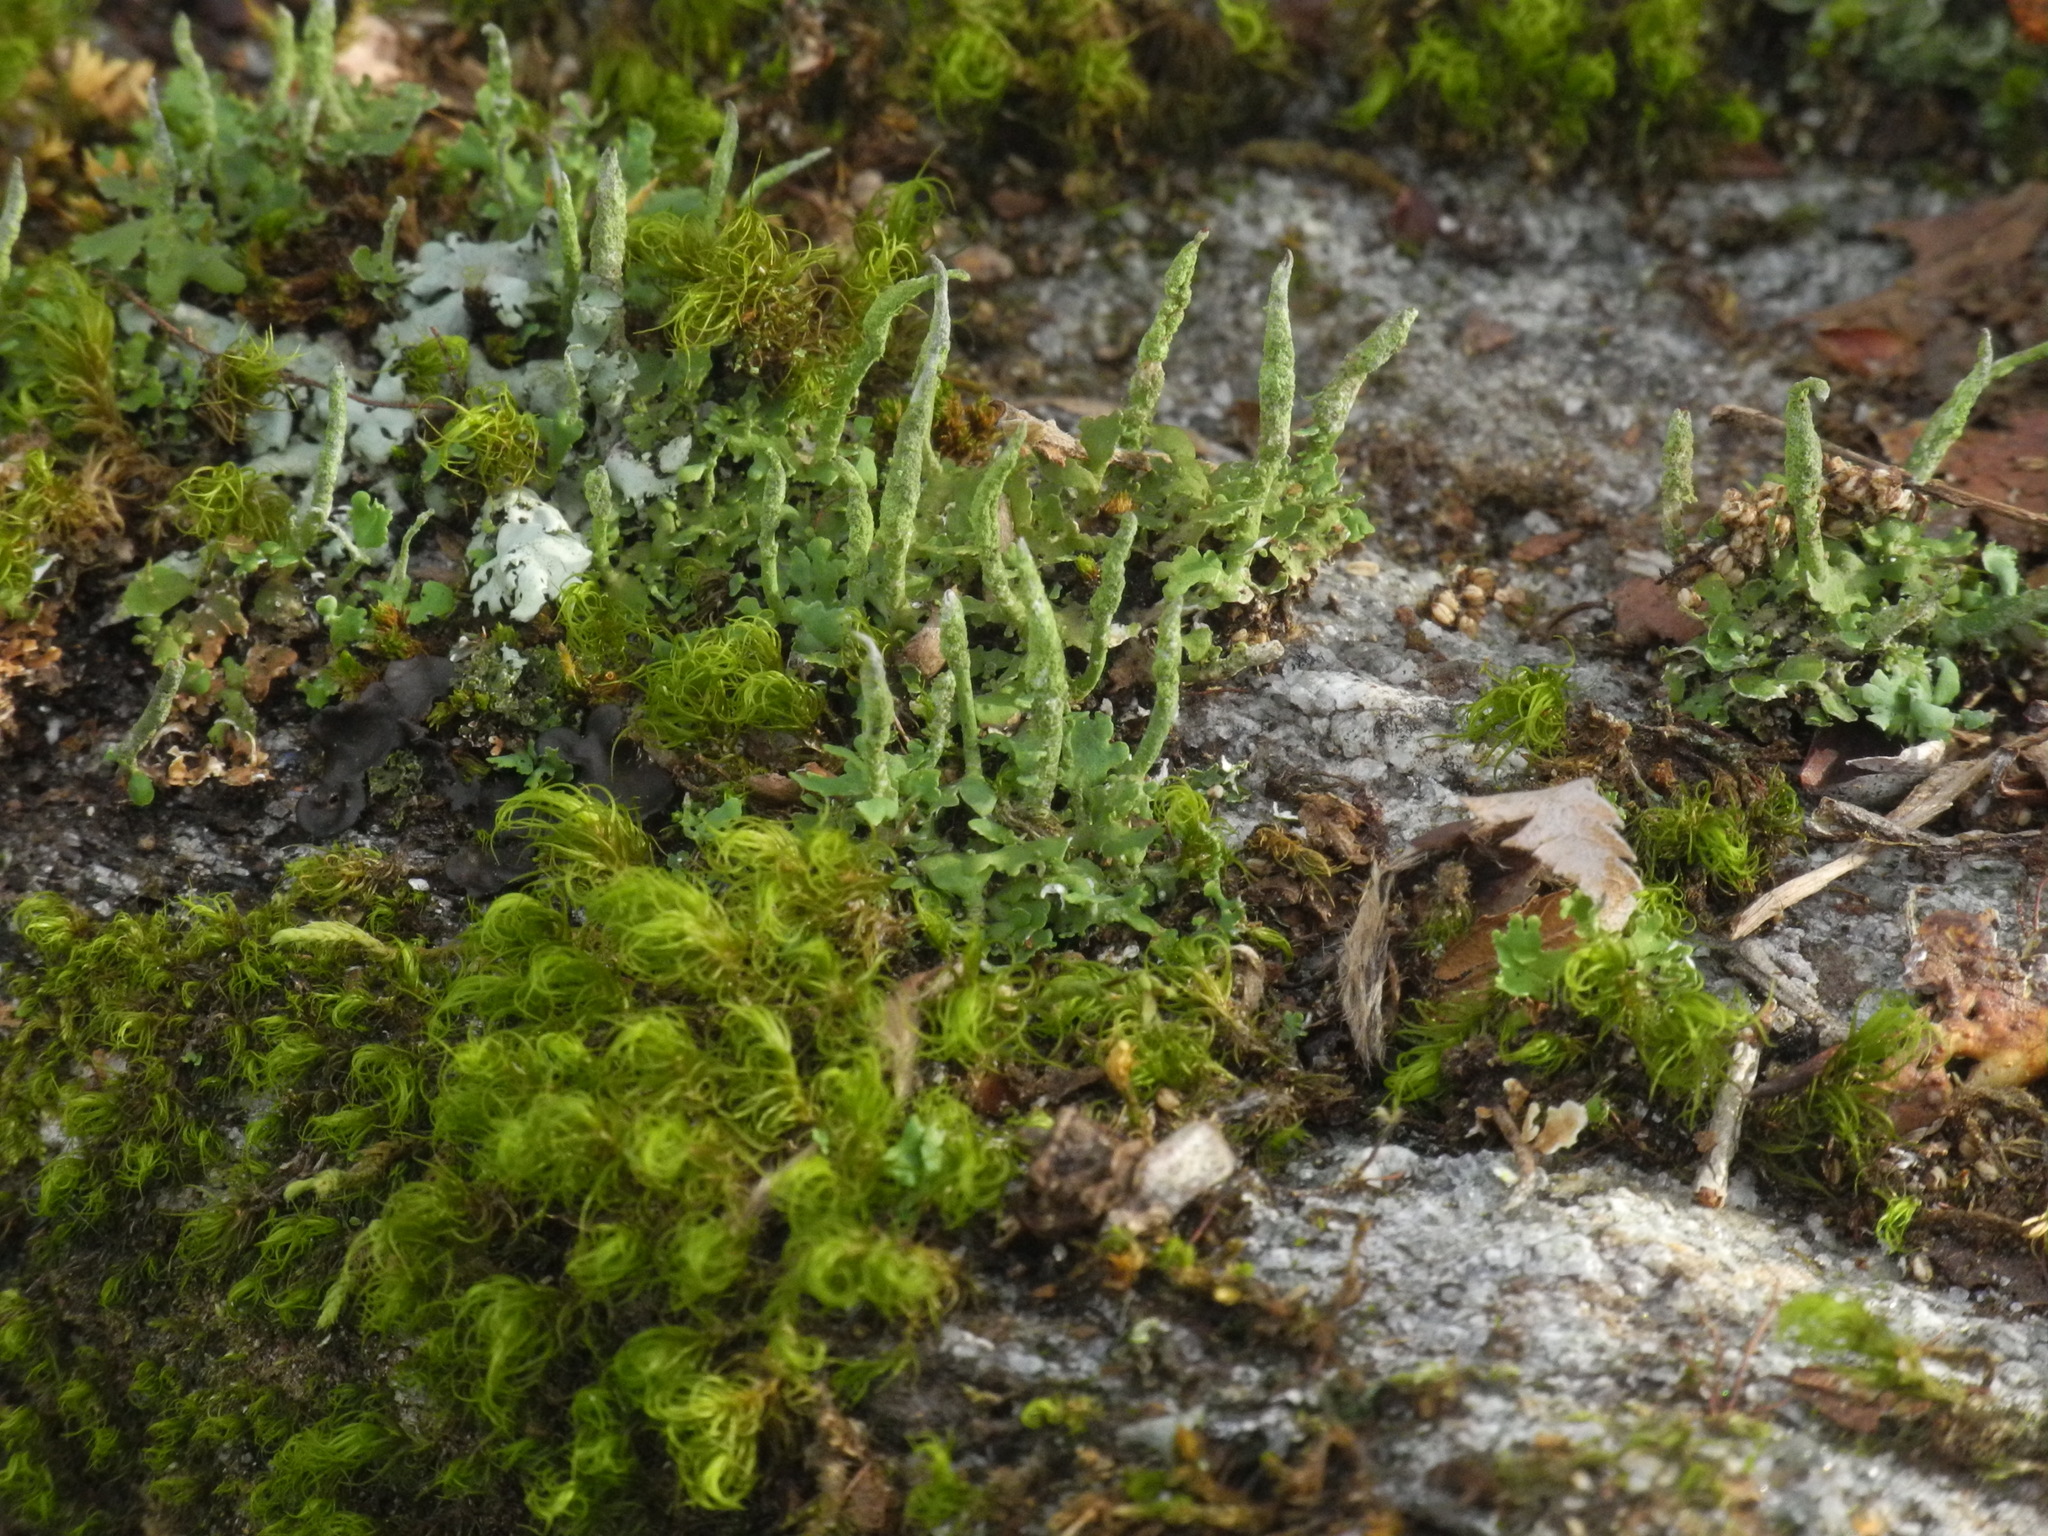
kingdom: Fungi
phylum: Ascomycota
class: Lecanoromycetes
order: Lecanorales
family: Cladoniaceae
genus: Cladonia
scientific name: Cladonia coniocraea
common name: Common powderhorn
